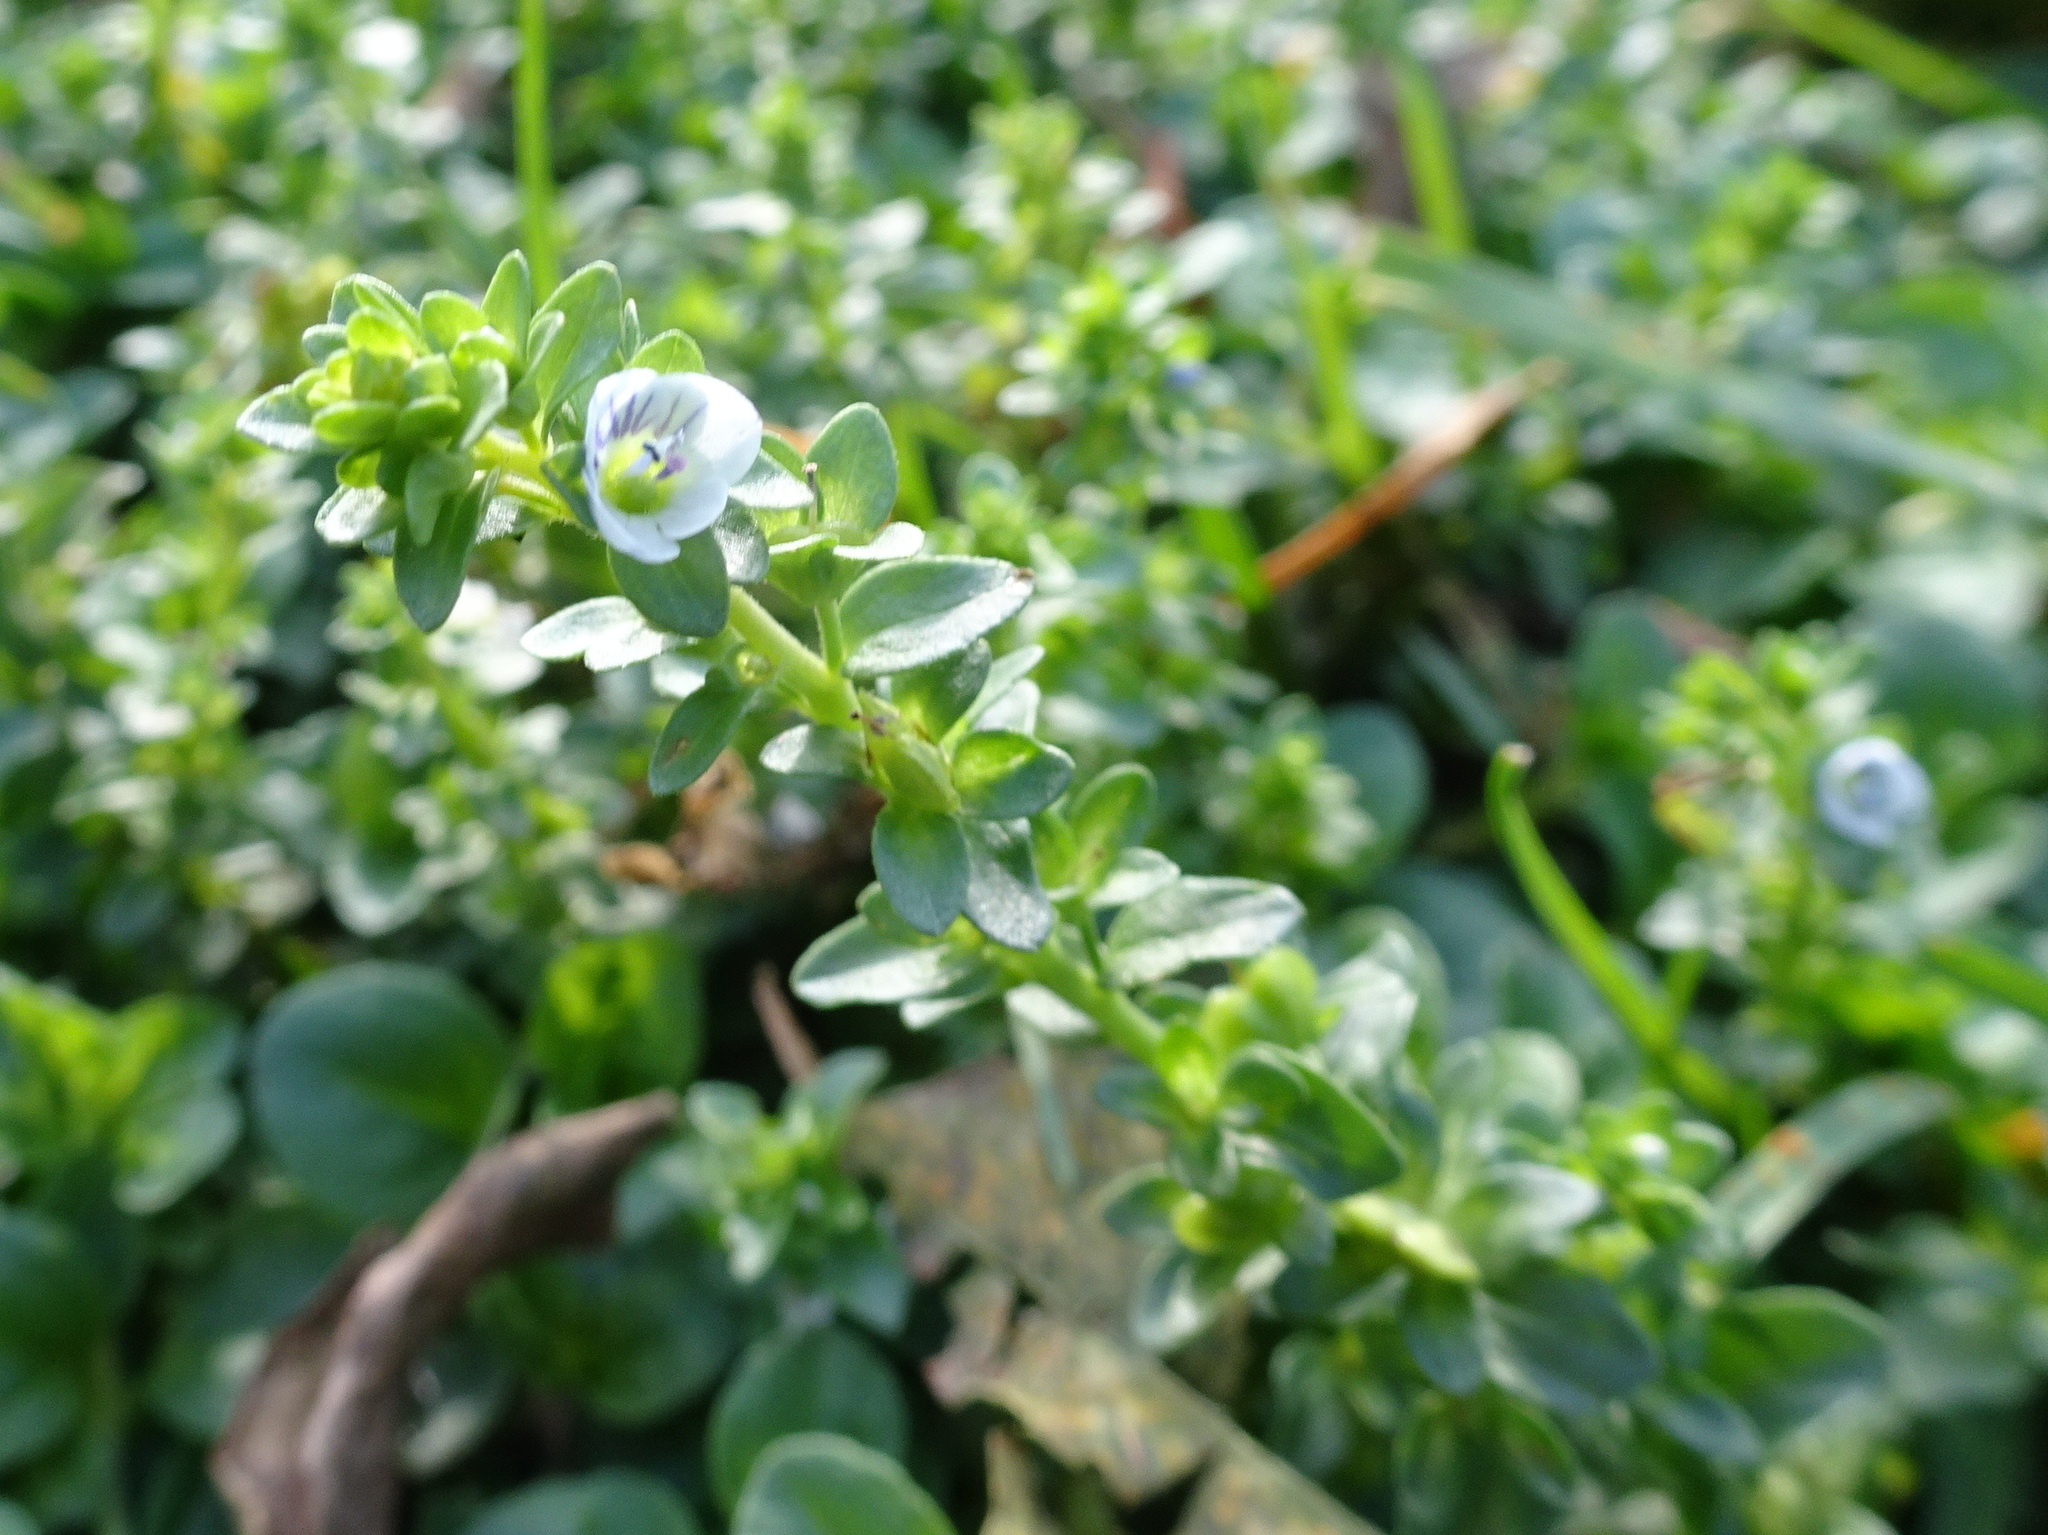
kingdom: Plantae
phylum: Tracheophyta
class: Magnoliopsida
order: Lamiales
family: Plantaginaceae
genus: Veronica
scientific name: Veronica serpyllifolia
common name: Thyme-leaved speedwell
